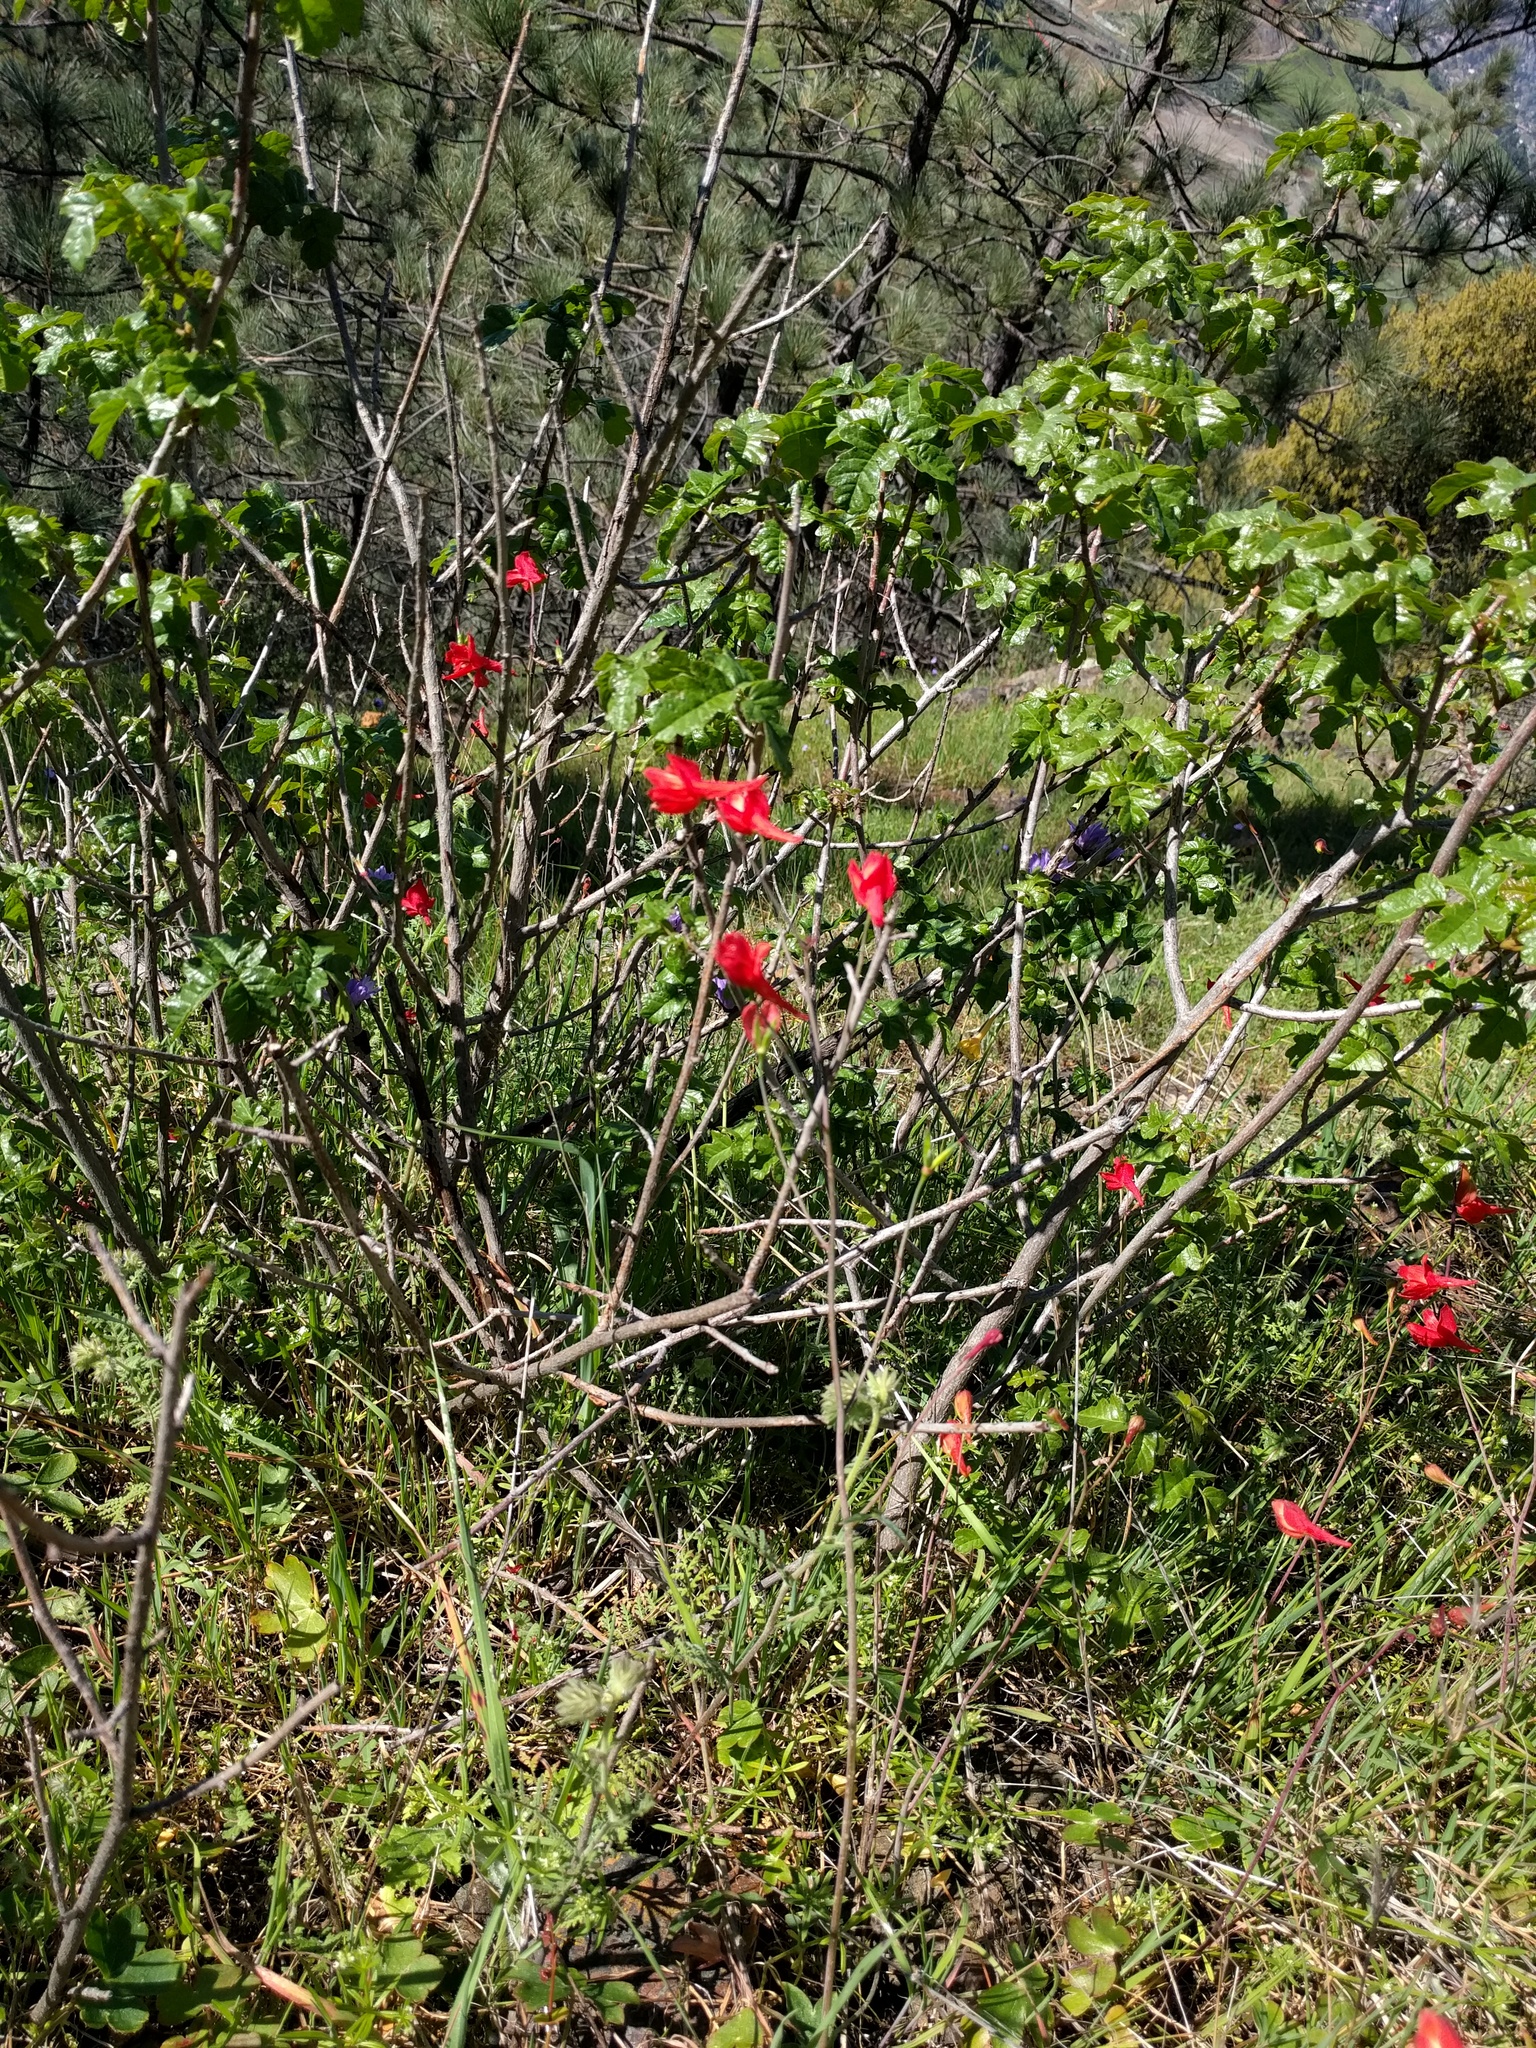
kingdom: Plantae
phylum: Tracheophyta
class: Magnoliopsida
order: Ranunculales
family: Ranunculaceae
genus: Delphinium
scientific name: Delphinium nudicaule
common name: Red larkspur
